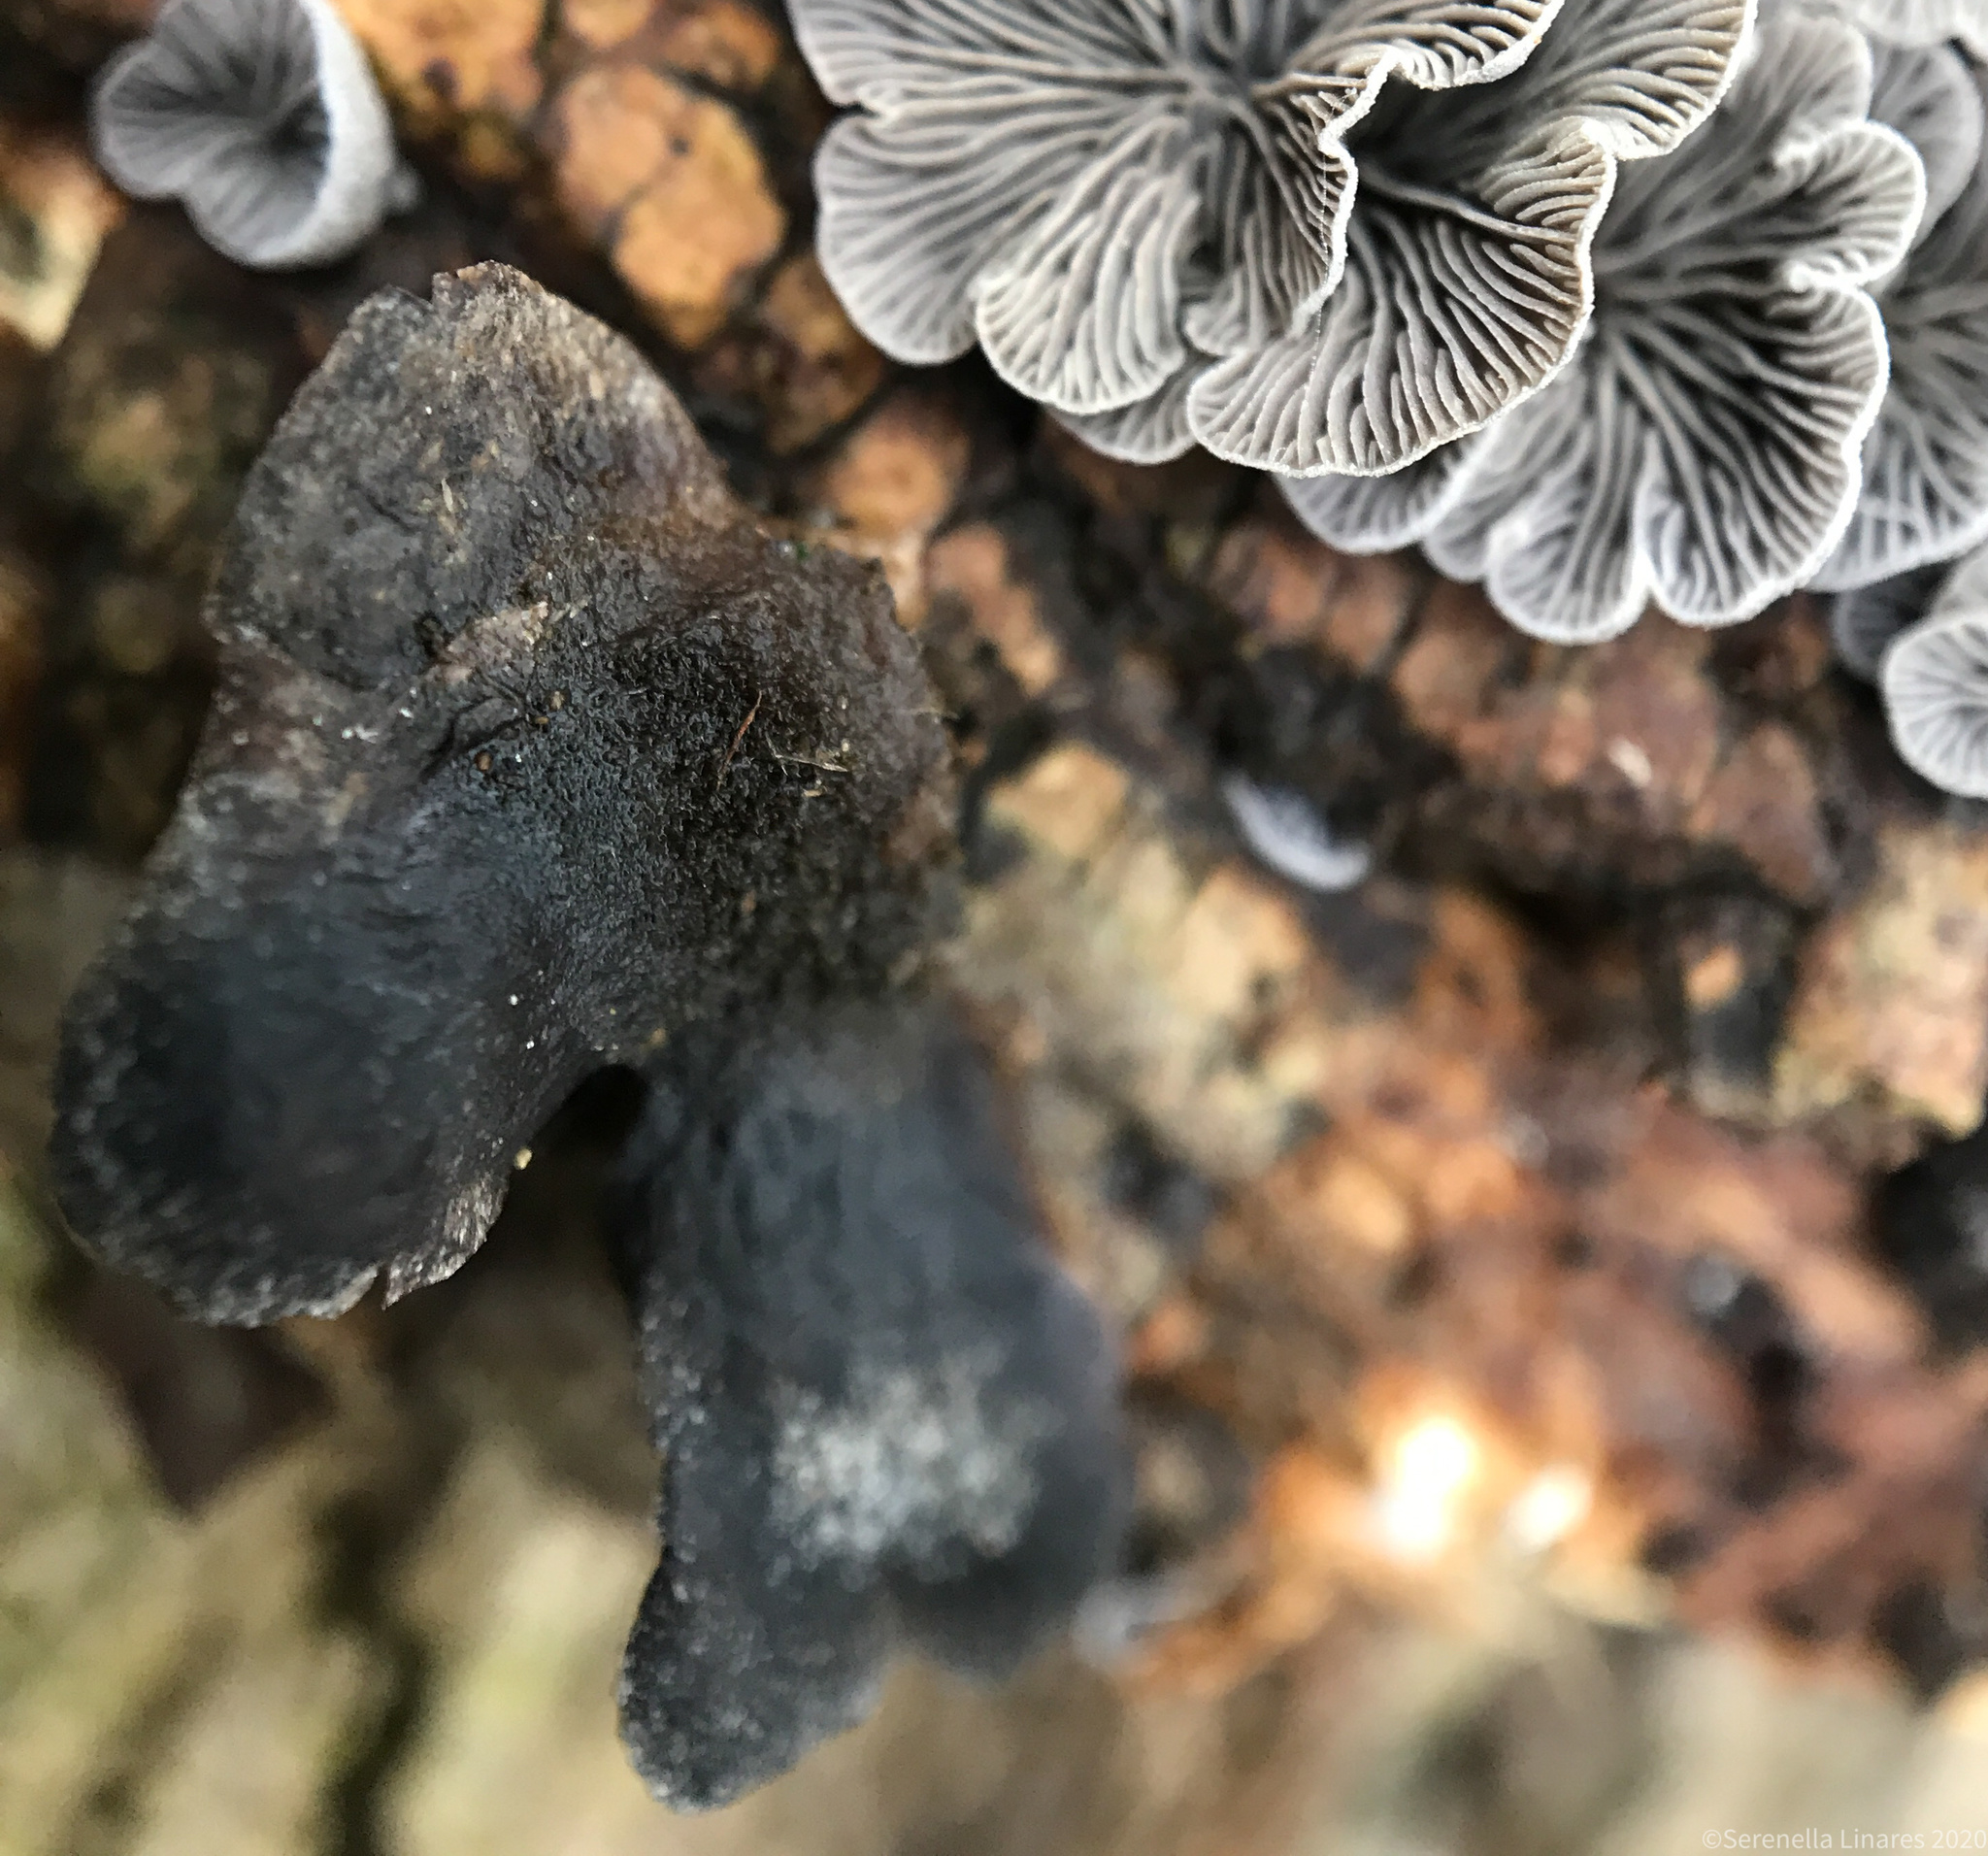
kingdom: Fungi
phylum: Basidiomycota
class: Agaricomycetes
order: Agaricales
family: Pleurotaceae
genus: Resupinatus
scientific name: Resupinatus applicatus
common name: Smoked oysterling
